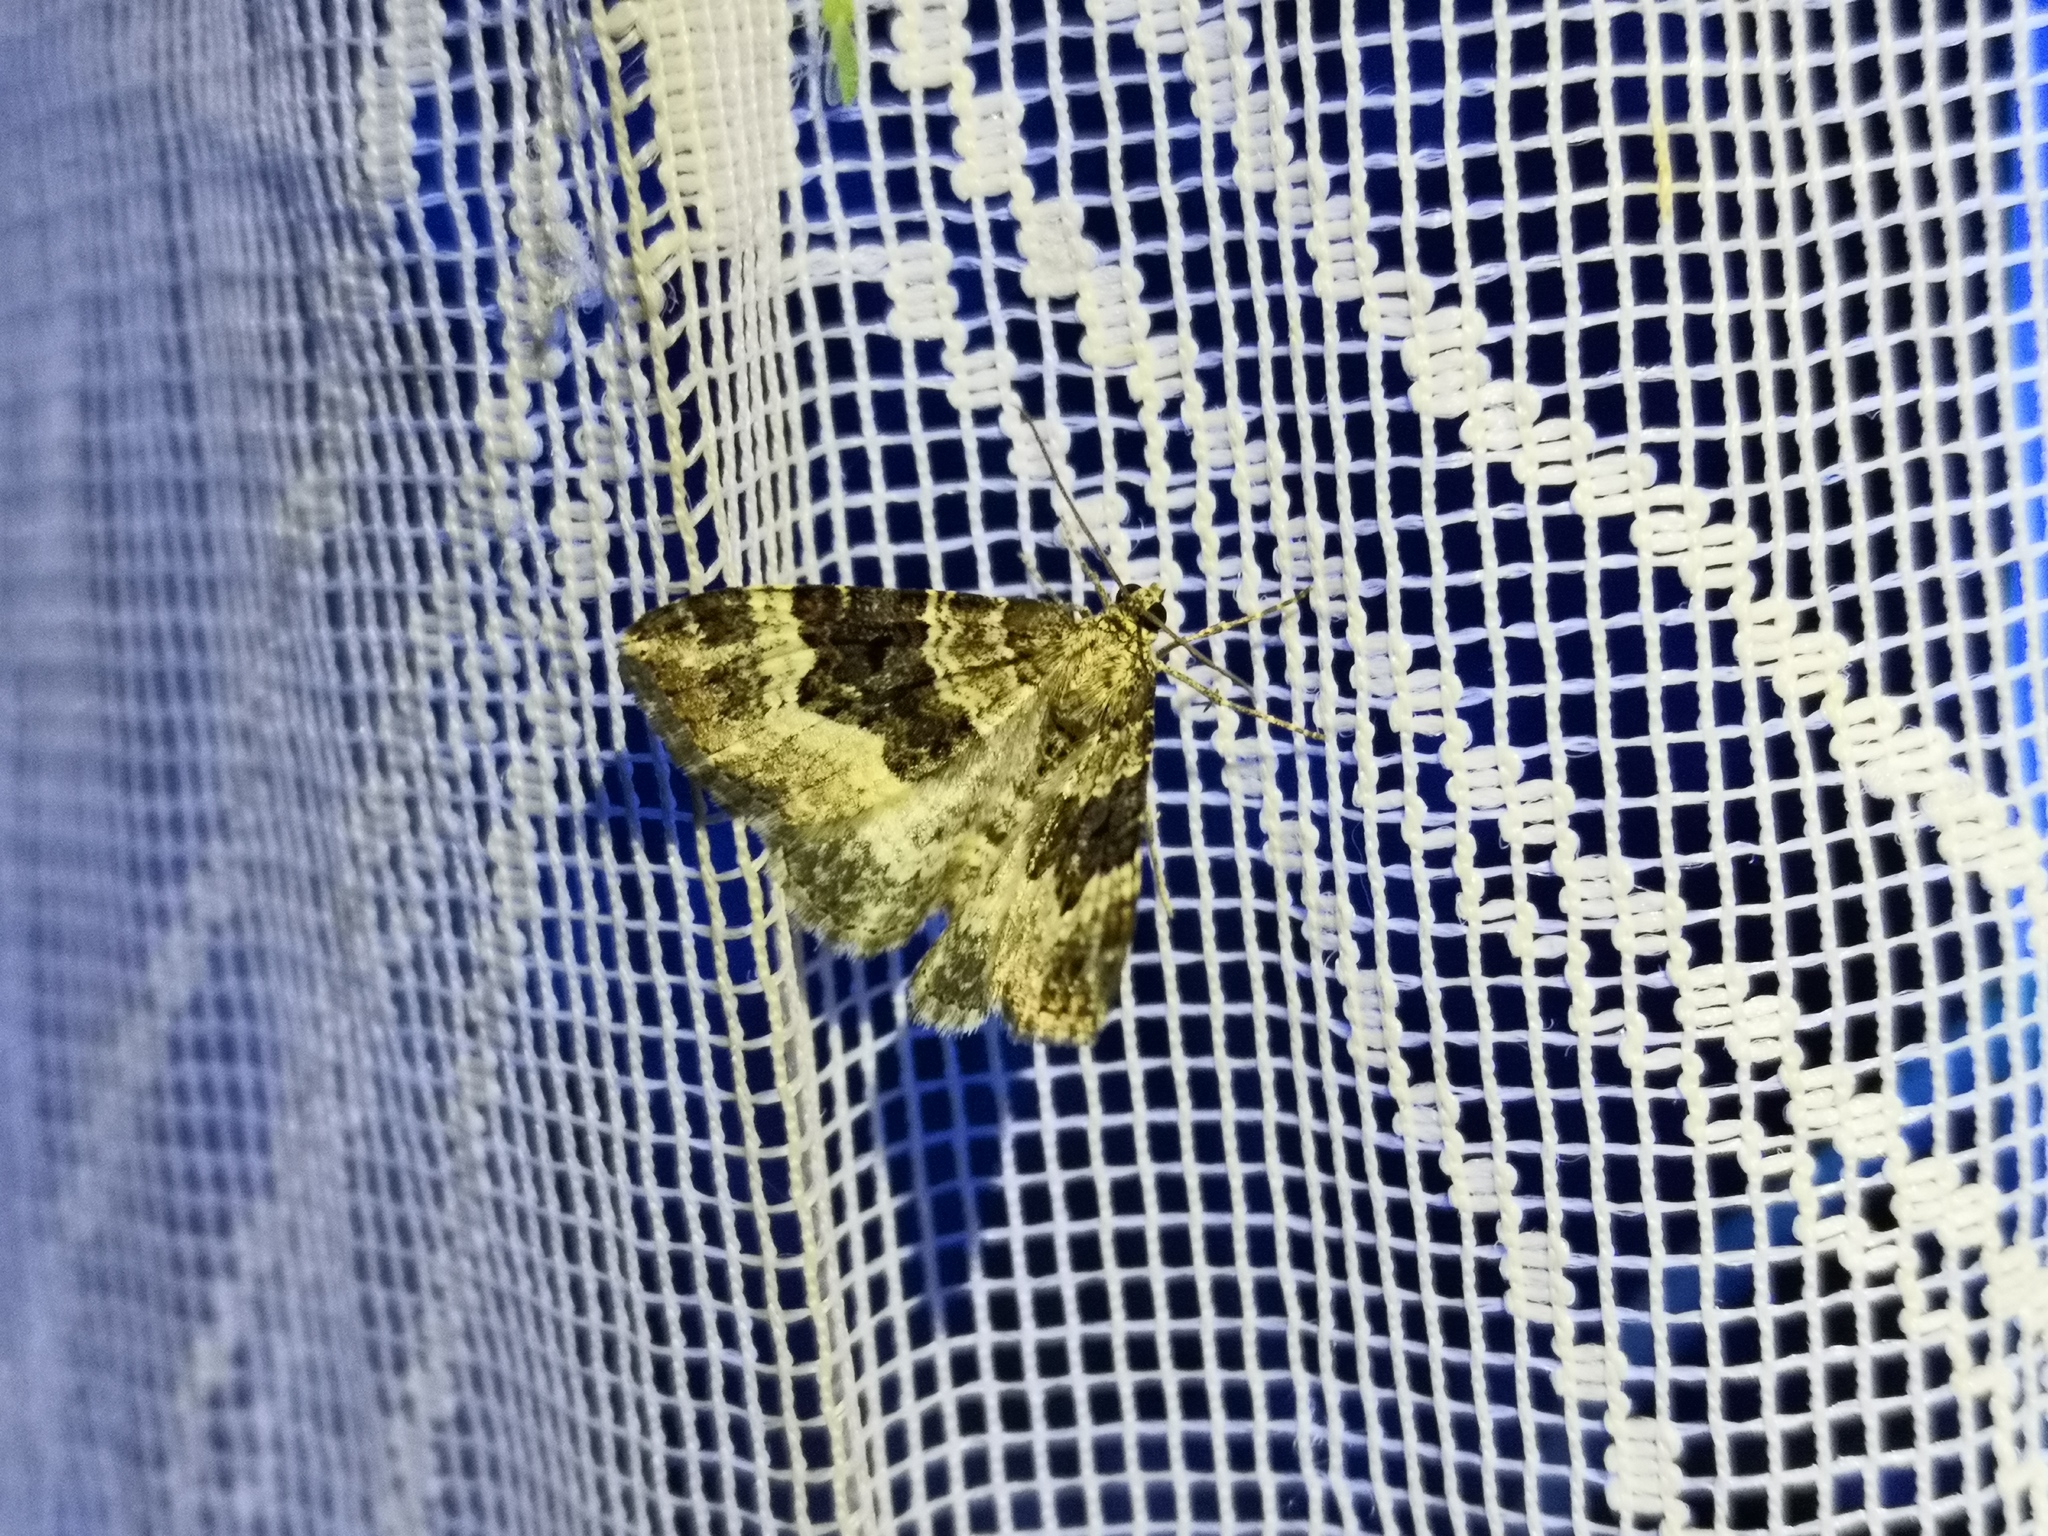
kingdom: Animalia
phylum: Arthropoda
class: Insecta
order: Lepidoptera
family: Geometridae
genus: Epirrhoe
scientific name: Epirrhoe alternata
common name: Common carpet
